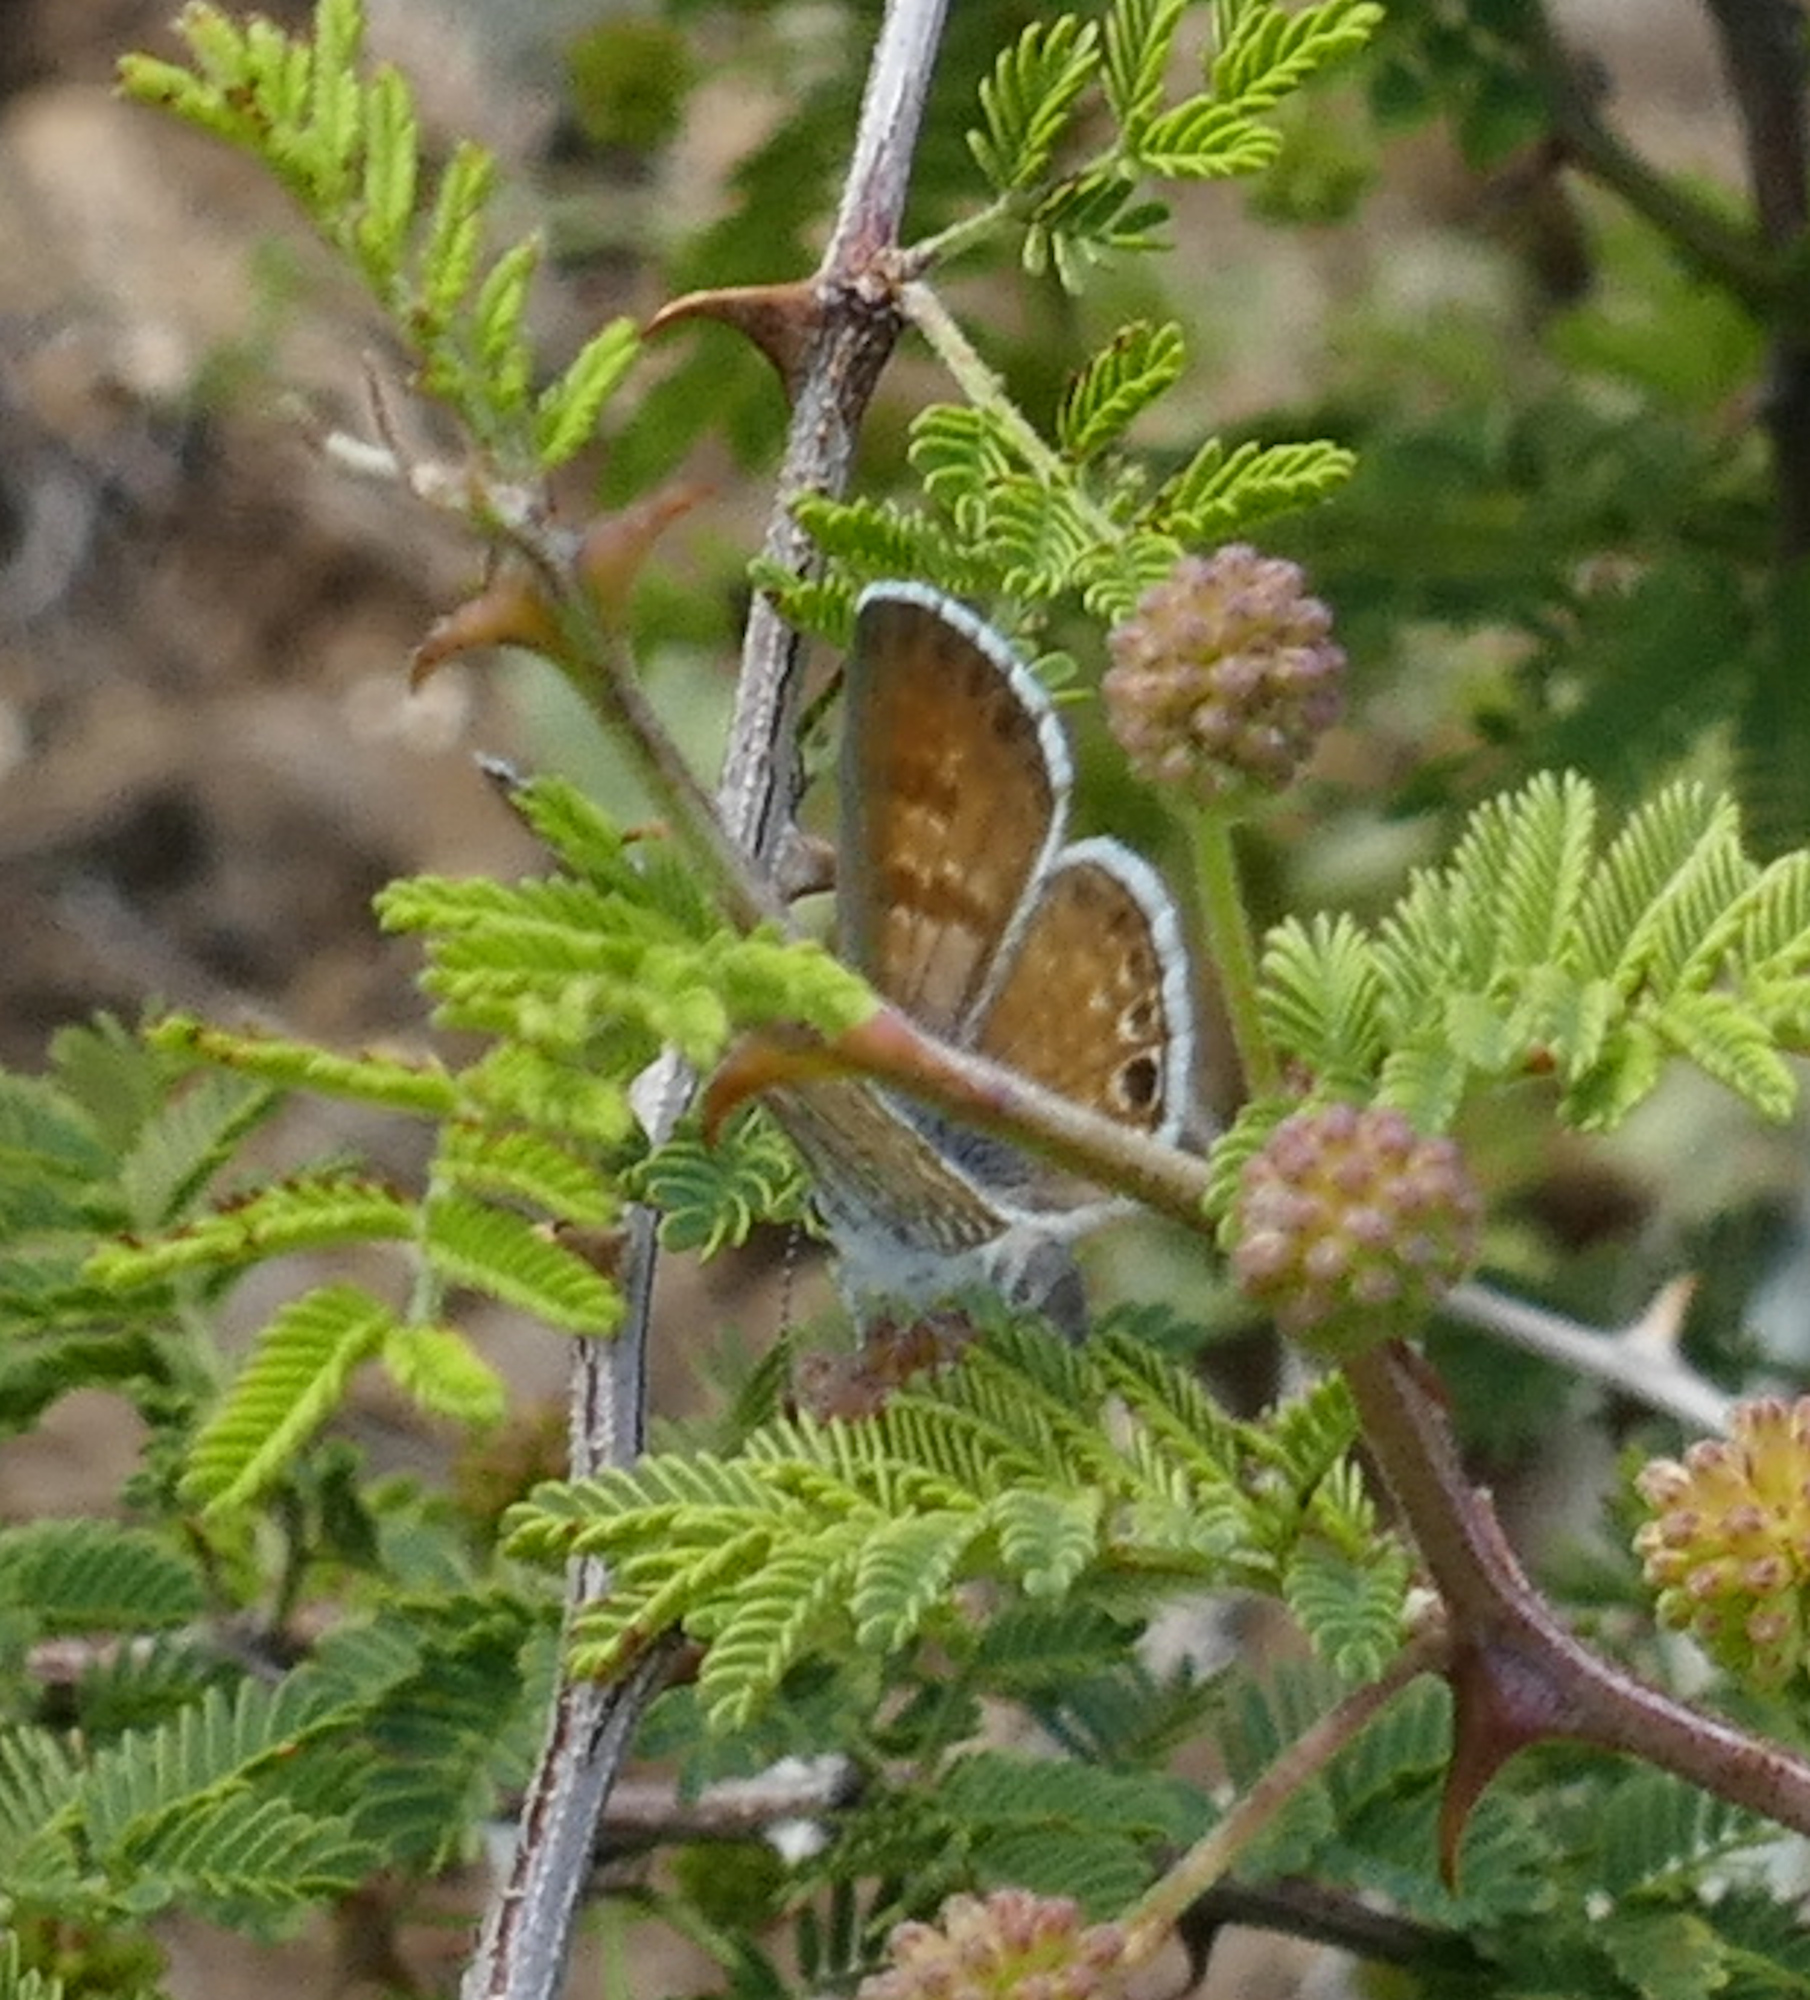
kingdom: Animalia
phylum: Arthropoda
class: Insecta
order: Lepidoptera
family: Lycaenidae
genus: Leptotes
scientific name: Leptotes marina
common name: Marine blue
